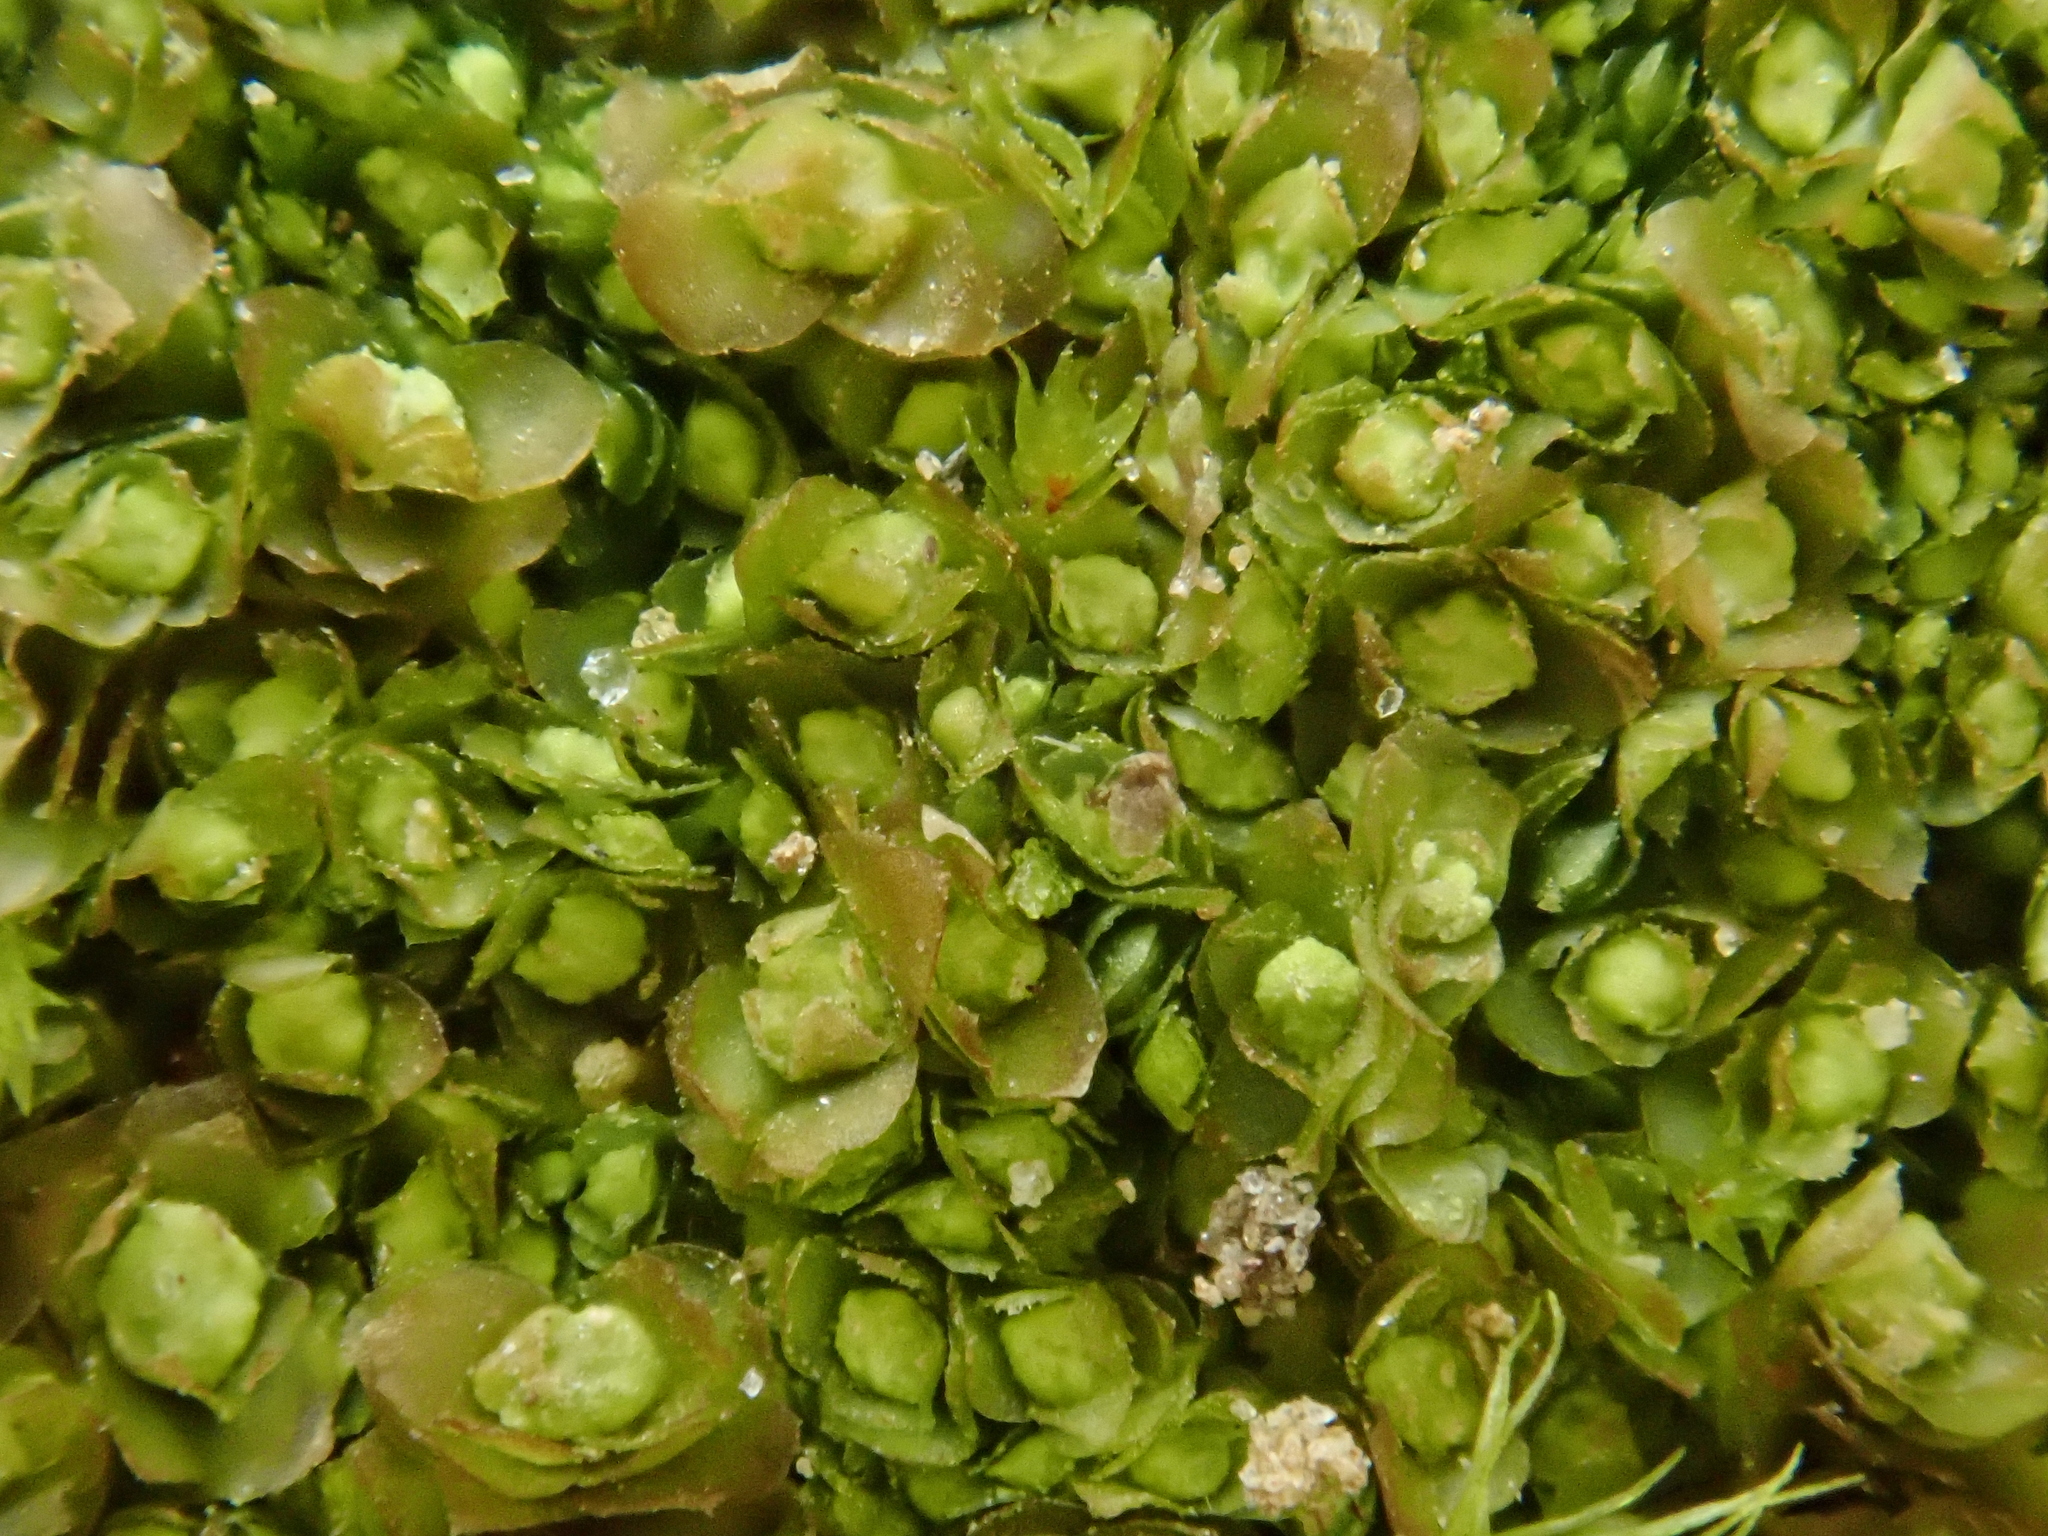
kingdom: Plantae
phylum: Marchantiophyta
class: Jungermanniopsida
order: Jungermanniales
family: Scapaniaceae
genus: Scapania
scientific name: Scapania curta
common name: Least earwort
